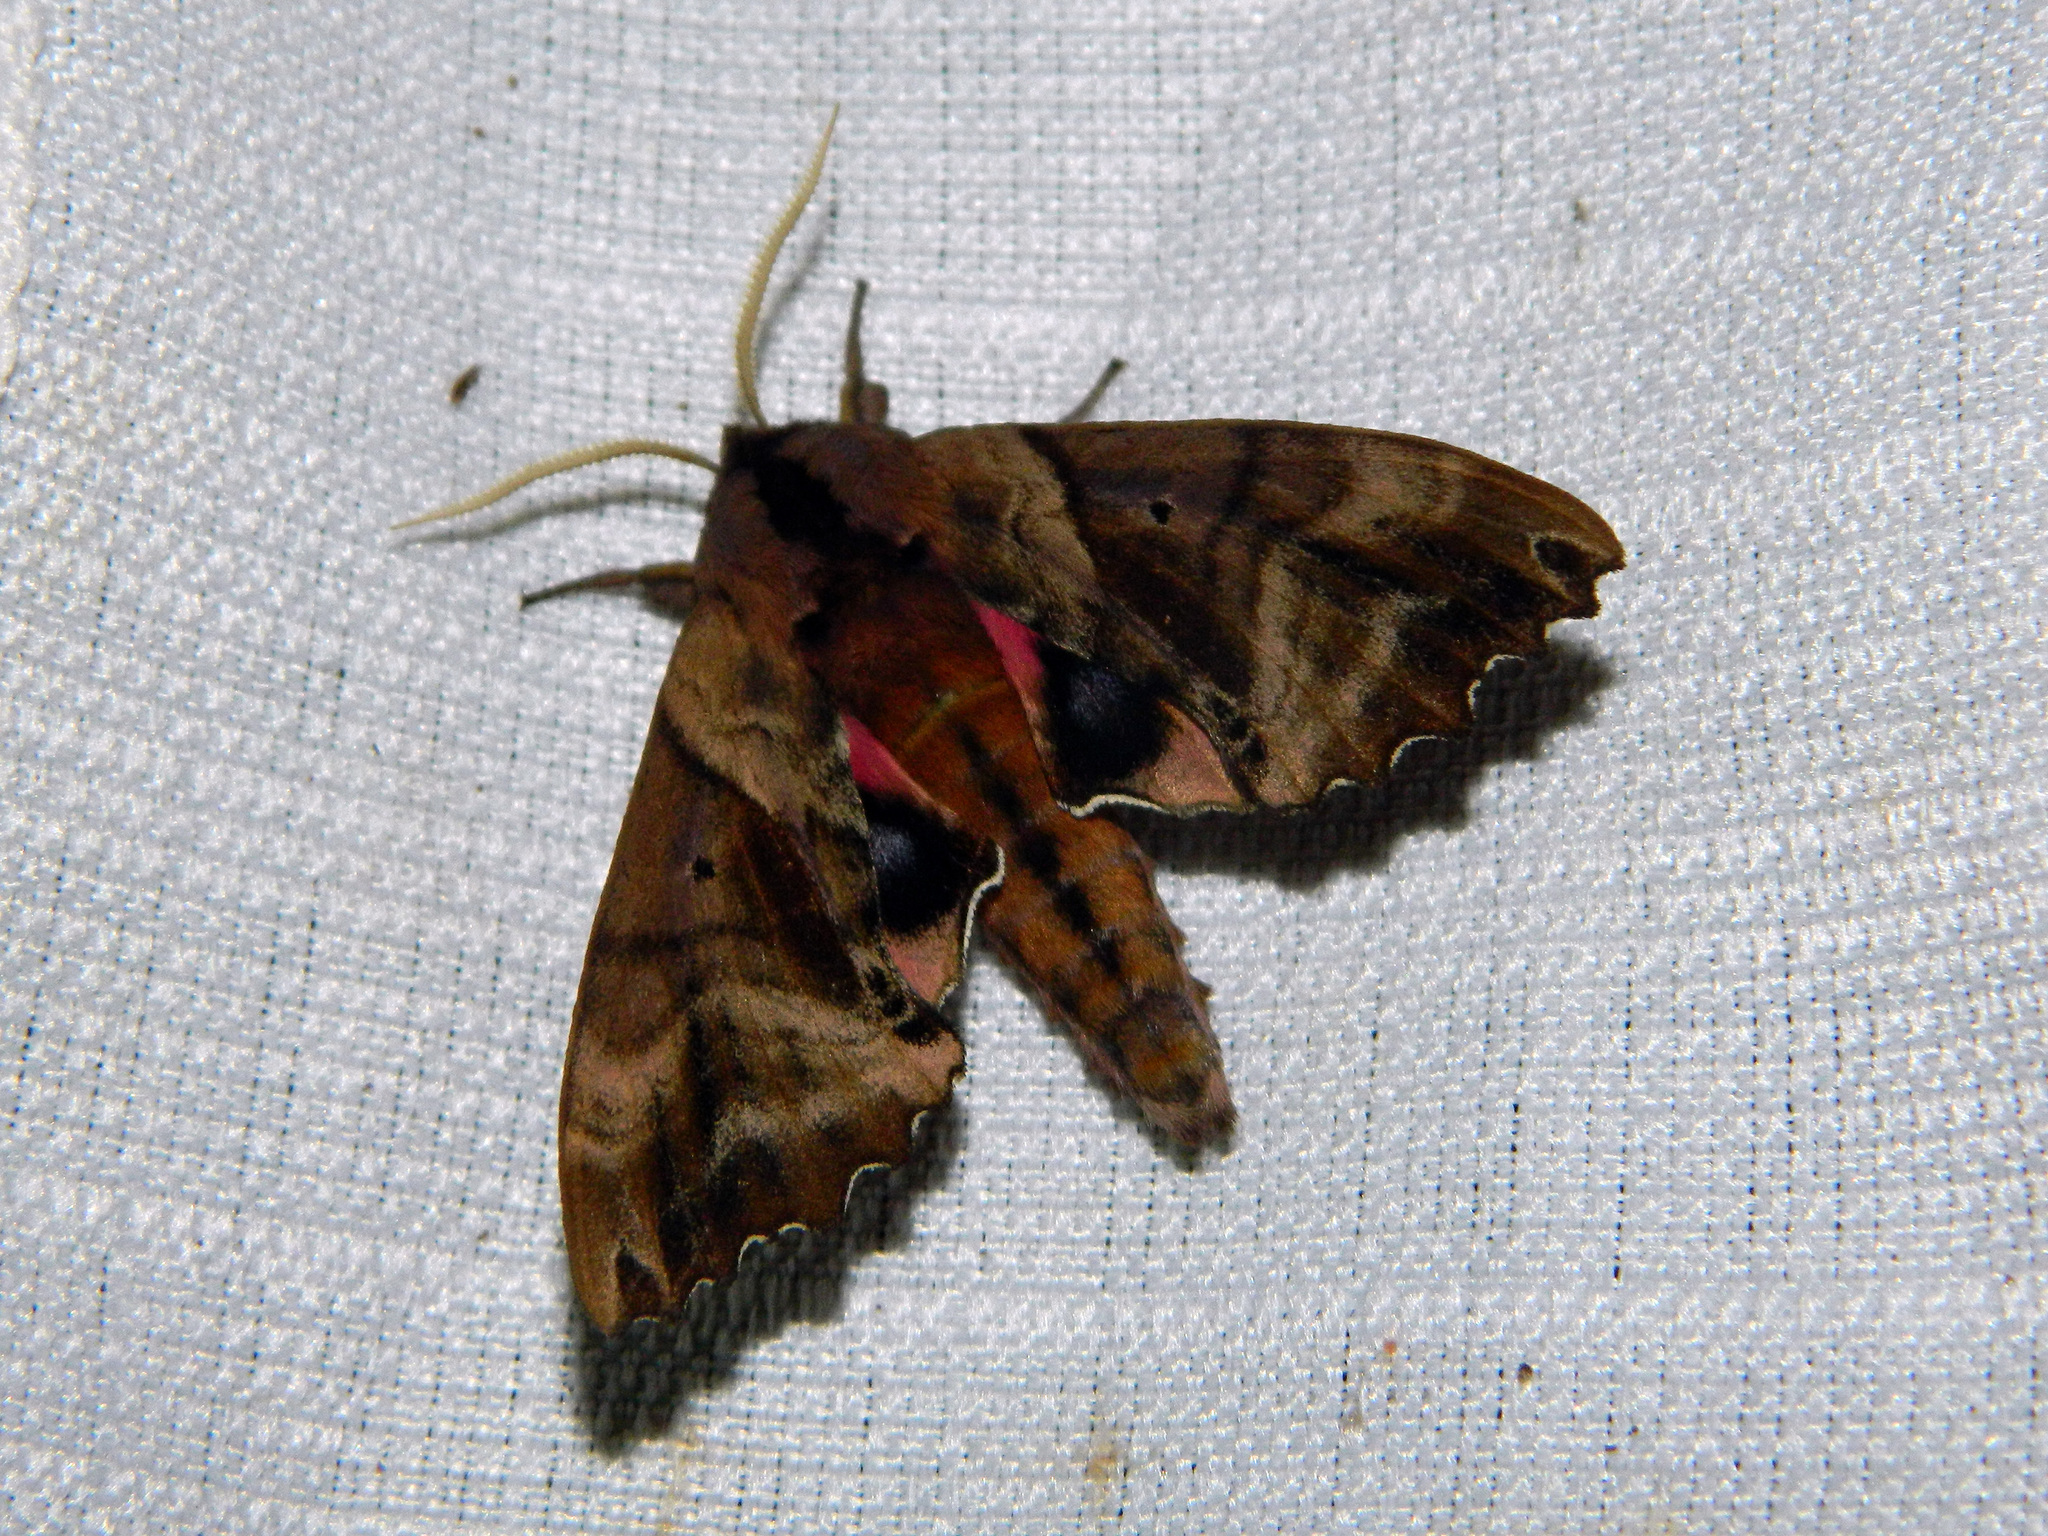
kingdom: Animalia
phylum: Arthropoda
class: Insecta
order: Lepidoptera
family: Sphingidae
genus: Paonias
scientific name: Paonias excaecata
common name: Blind-eyed sphinx
